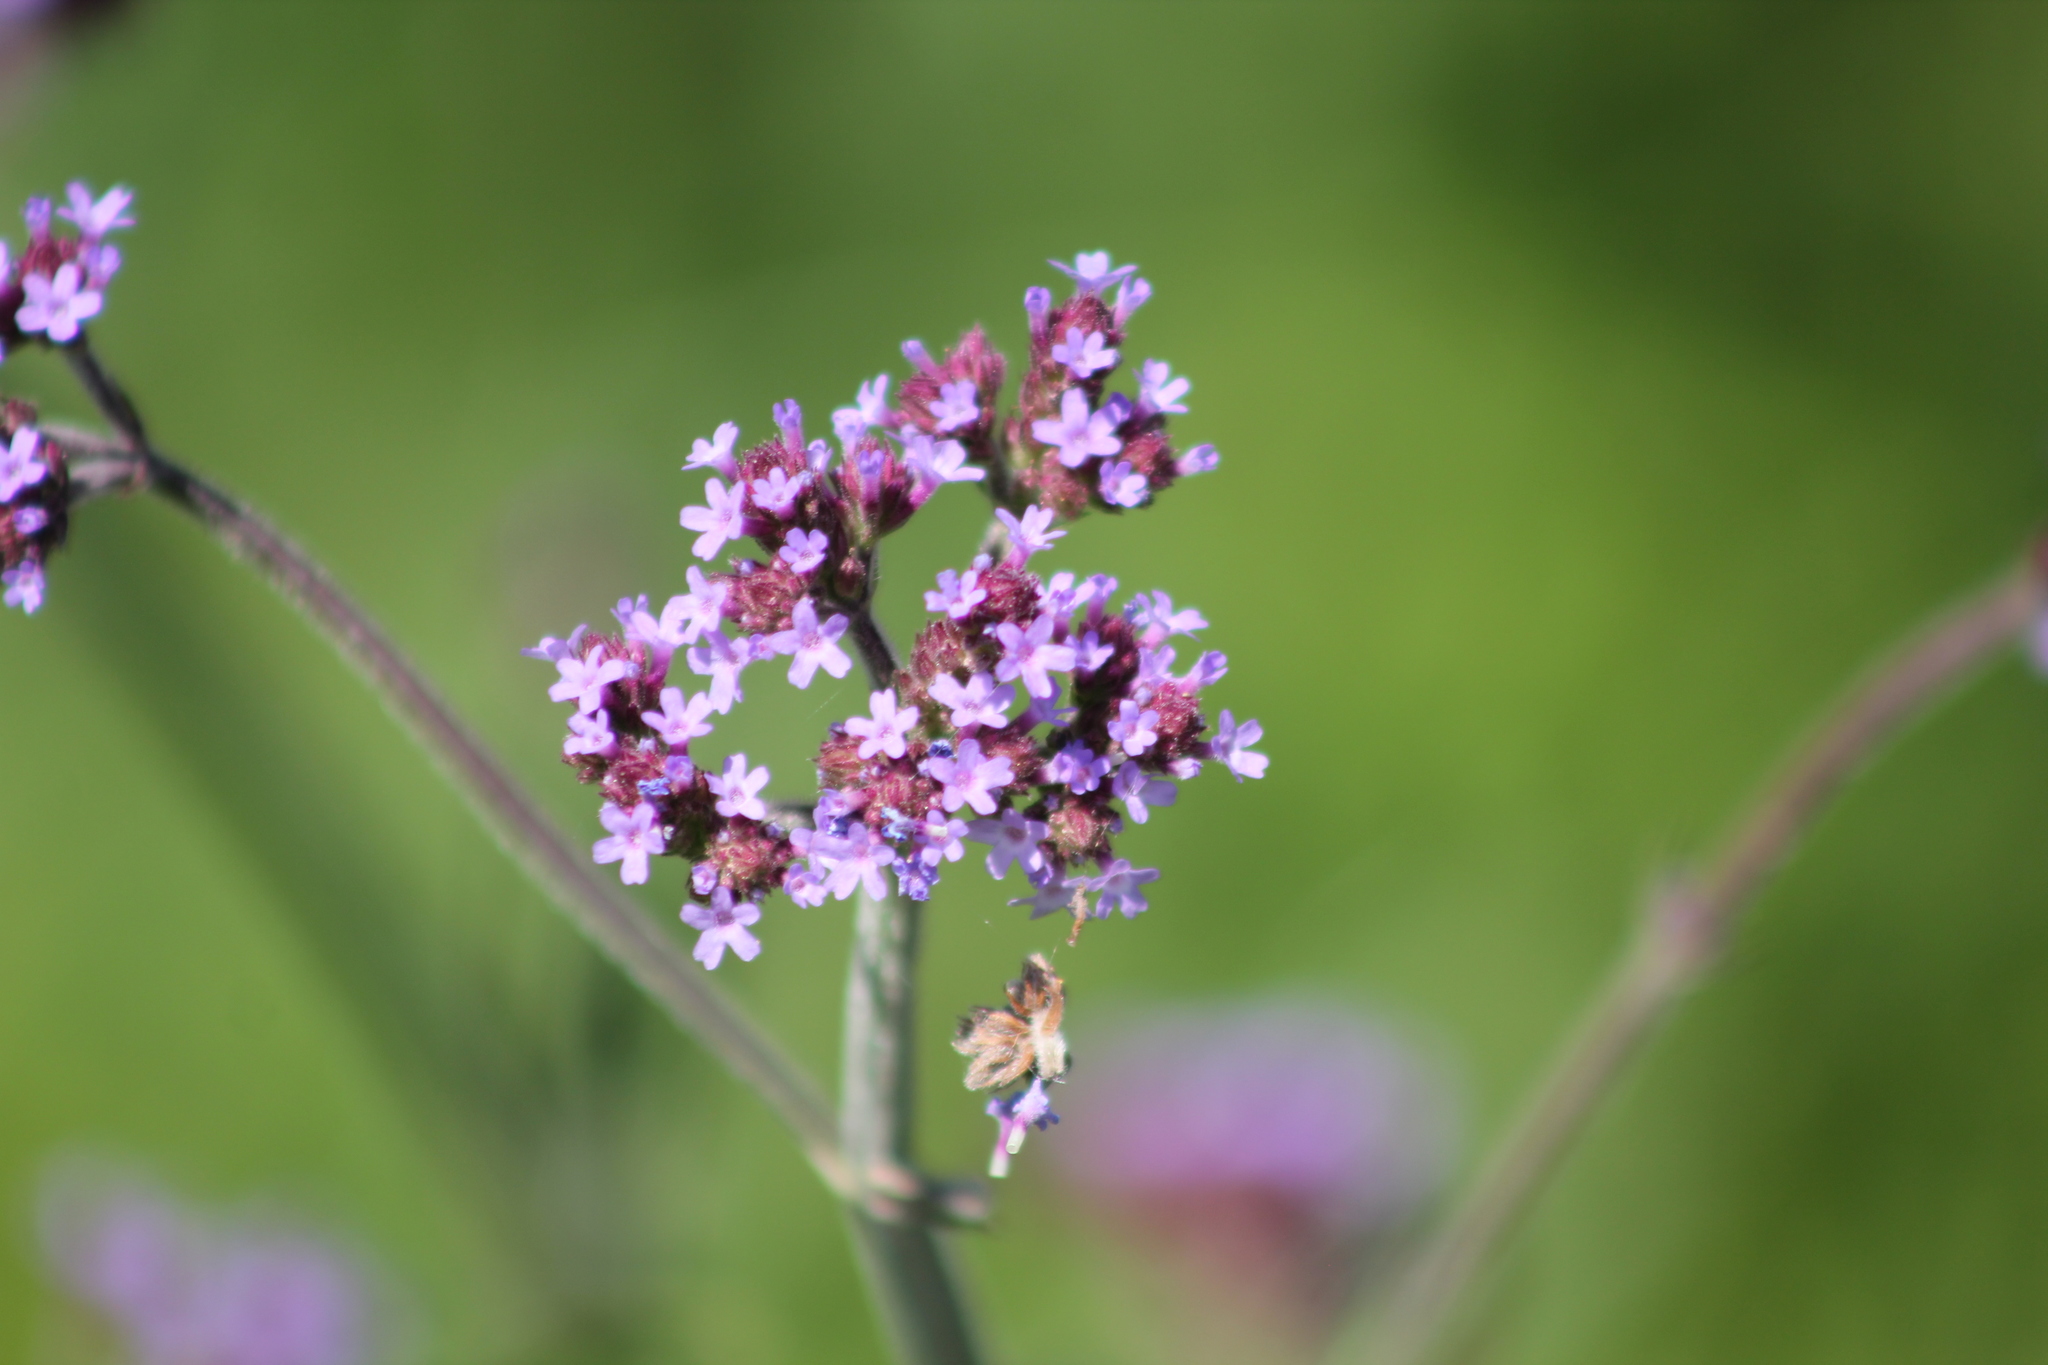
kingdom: Plantae
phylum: Tracheophyta
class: Magnoliopsida
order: Lamiales
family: Verbenaceae
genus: Verbena
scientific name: Verbena bonariensis
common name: Purpletop vervain
